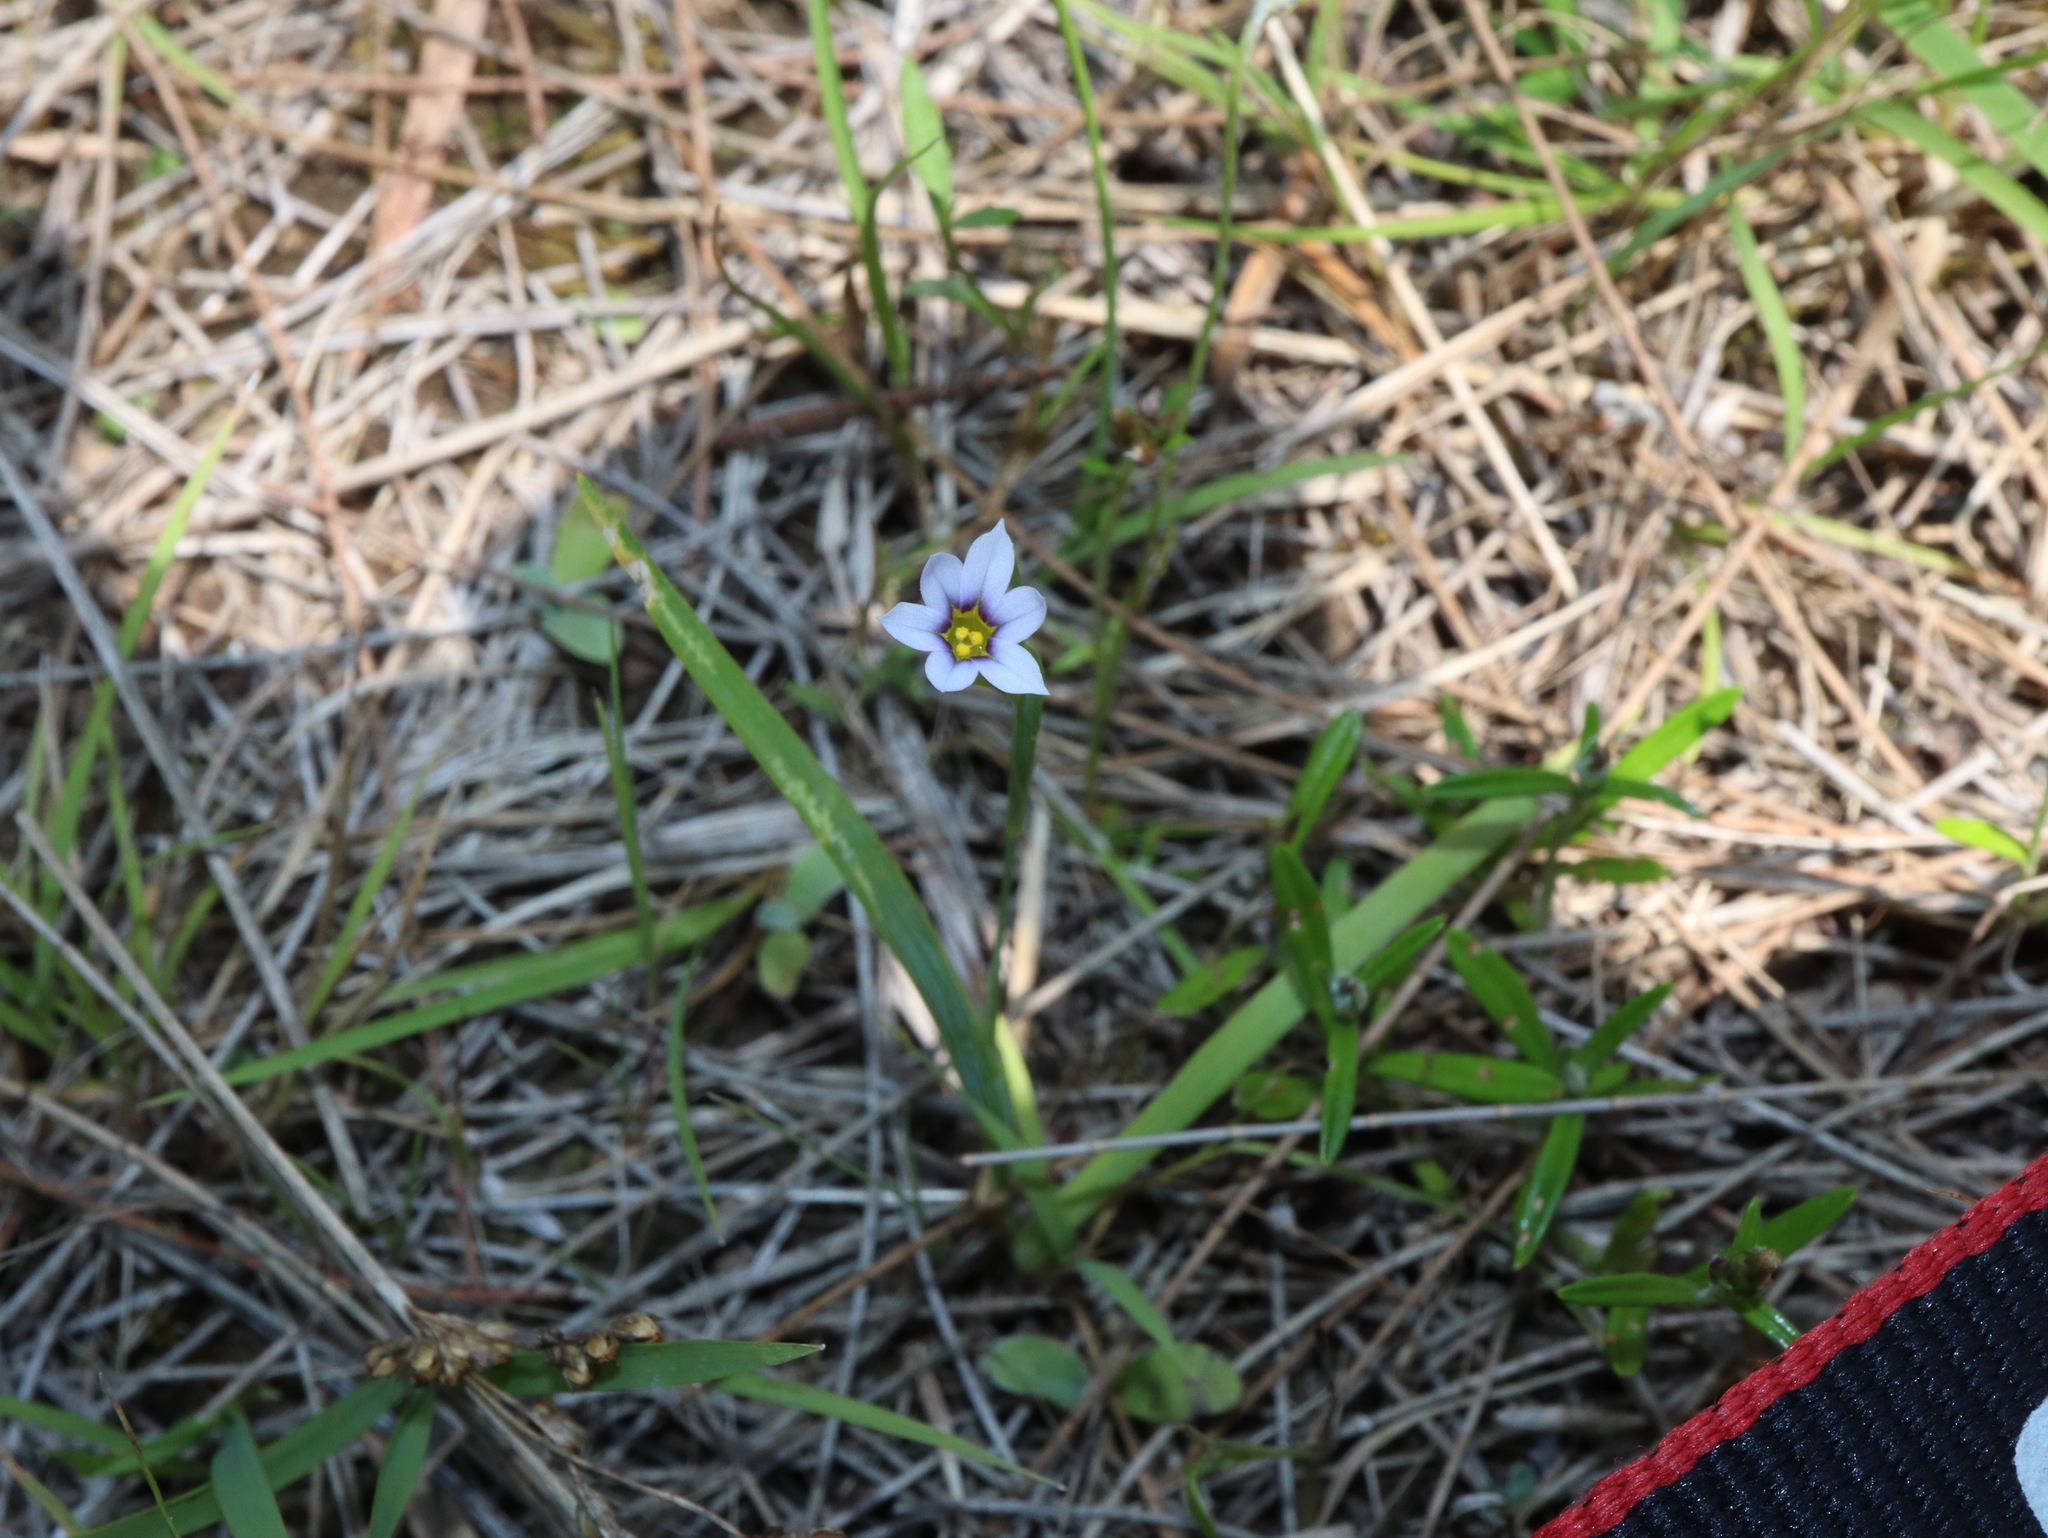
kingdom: Plantae
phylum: Tracheophyta
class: Liliopsida
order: Asparagales
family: Iridaceae
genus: Sisyrinchium
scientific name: Sisyrinchium micranthum
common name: Bermuda pigroot
